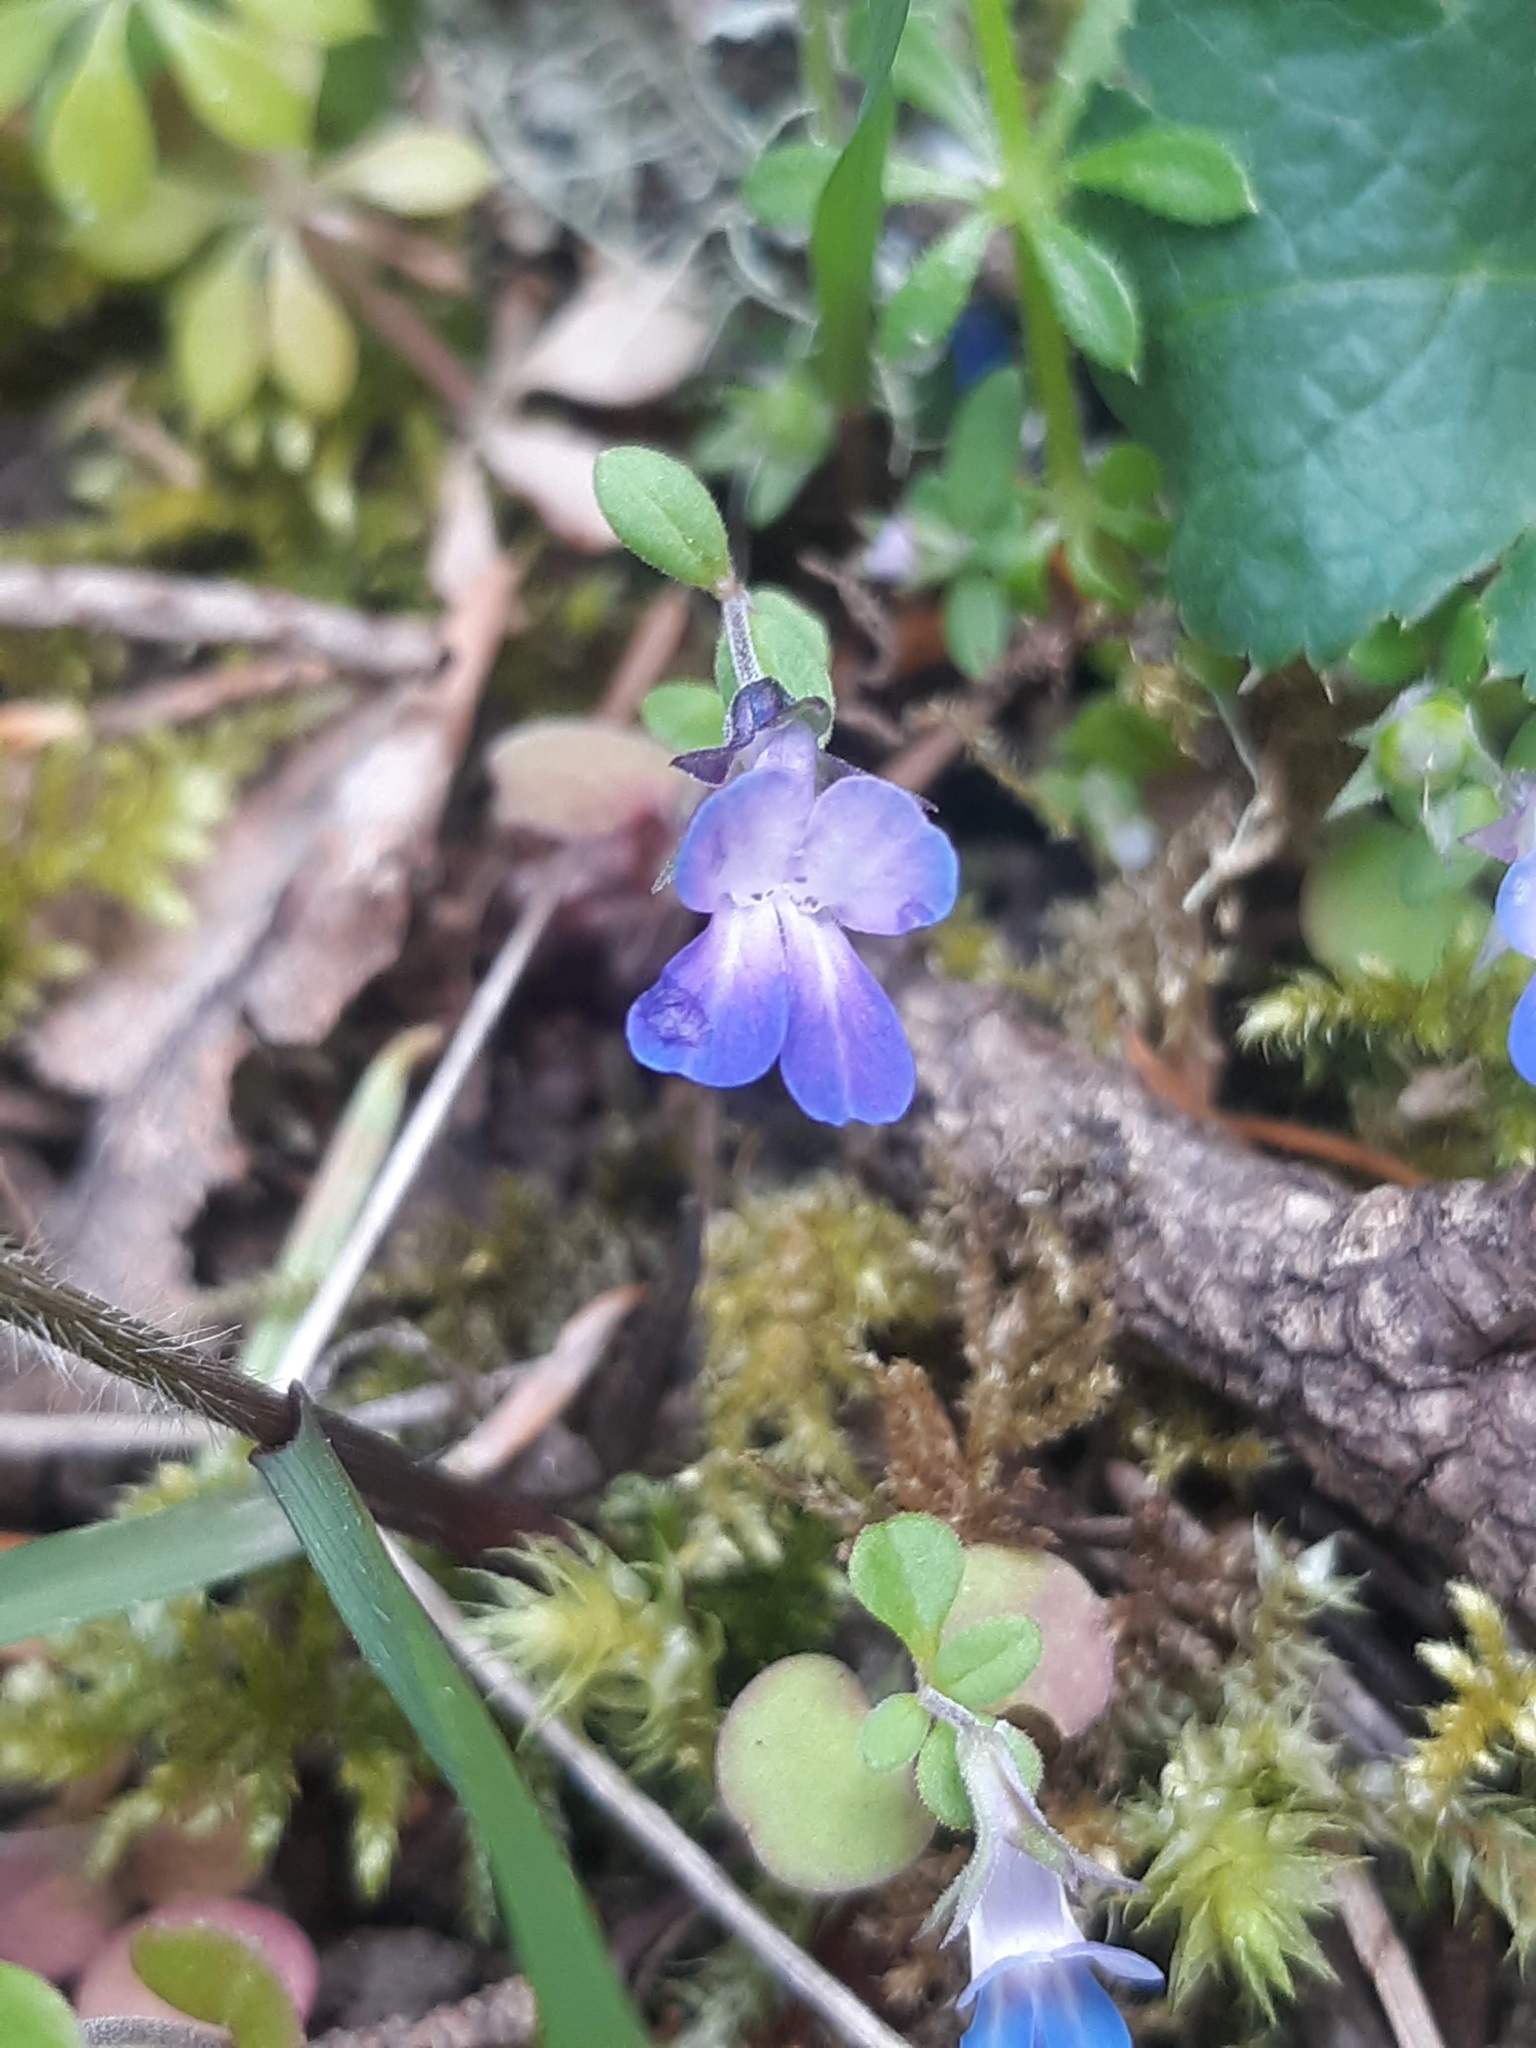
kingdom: Plantae
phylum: Tracheophyta
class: Magnoliopsida
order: Lamiales
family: Plantaginaceae
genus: Collinsia
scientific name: Collinsia parviflora
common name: Blue-lips
